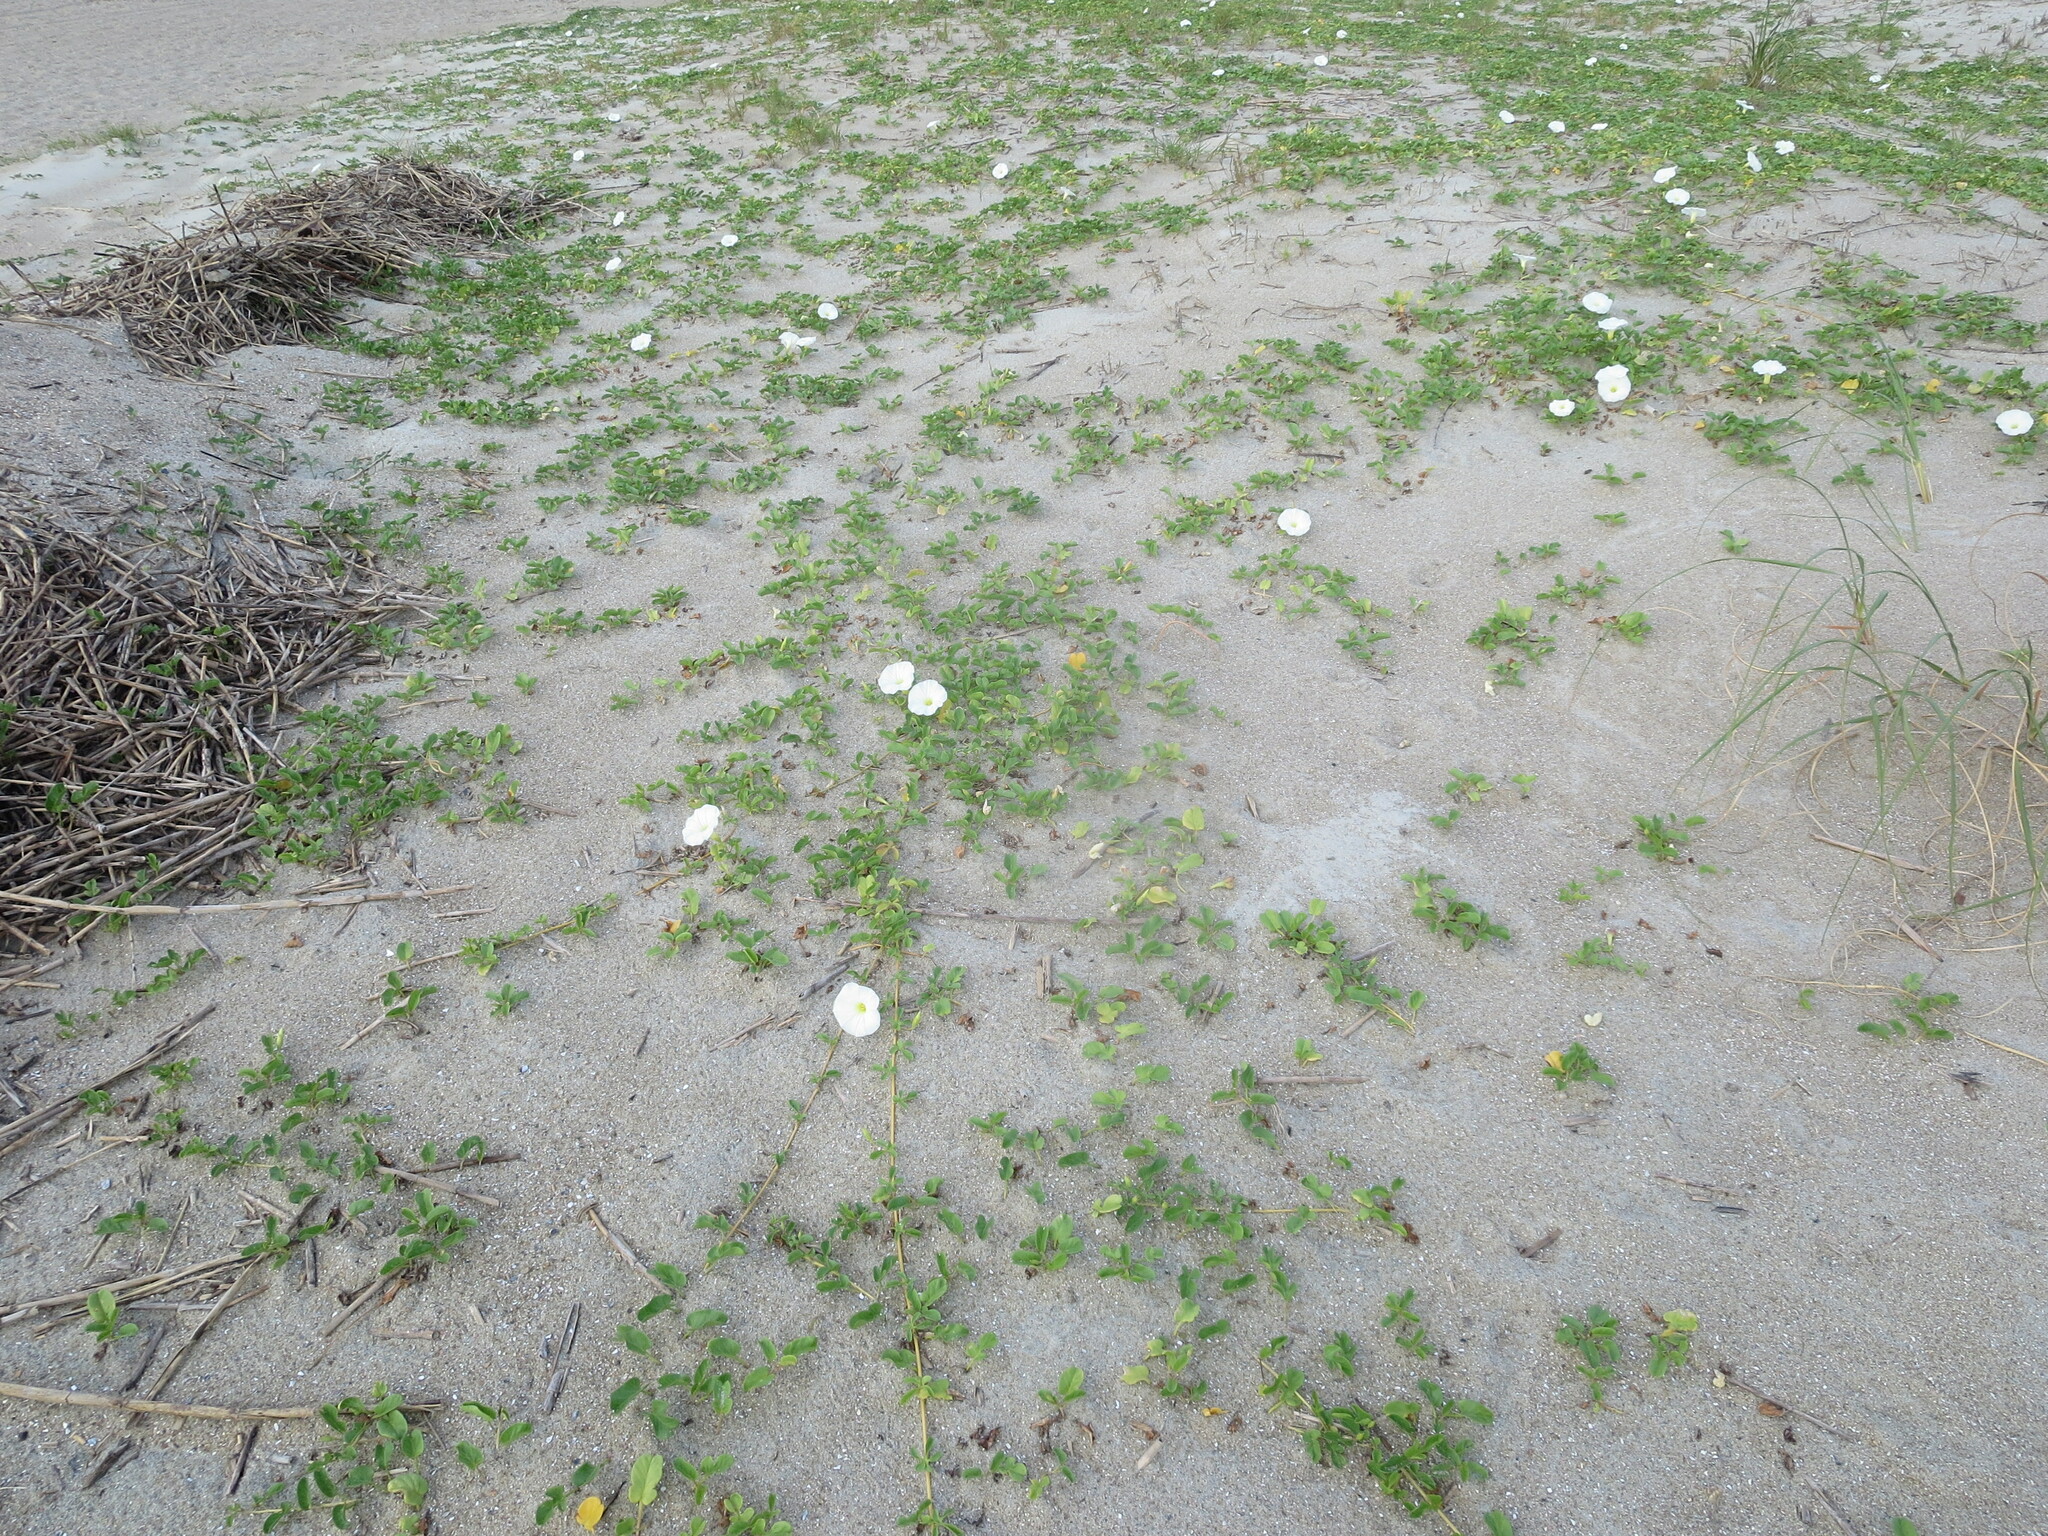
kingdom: Plantae
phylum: Tracheophyta
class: Magnoliopsida
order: Solanales
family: Convolvulaceae
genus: Ipomoea
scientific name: Ipomoea imperati
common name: Fiddle-leaf morning-glory
